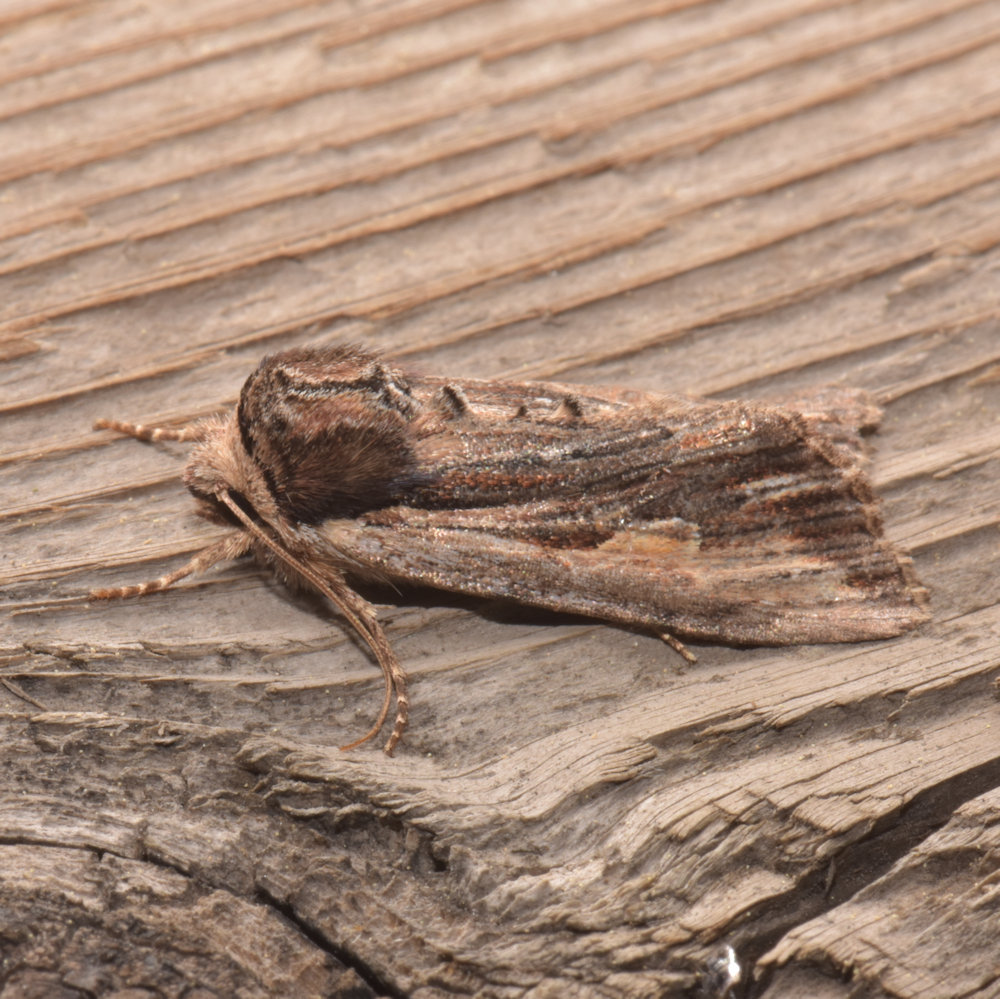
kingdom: Animalia
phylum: Arthropoda
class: Insecta
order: Lepidoptera
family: Noctuidae
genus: Achatia
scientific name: Achatia evicta
